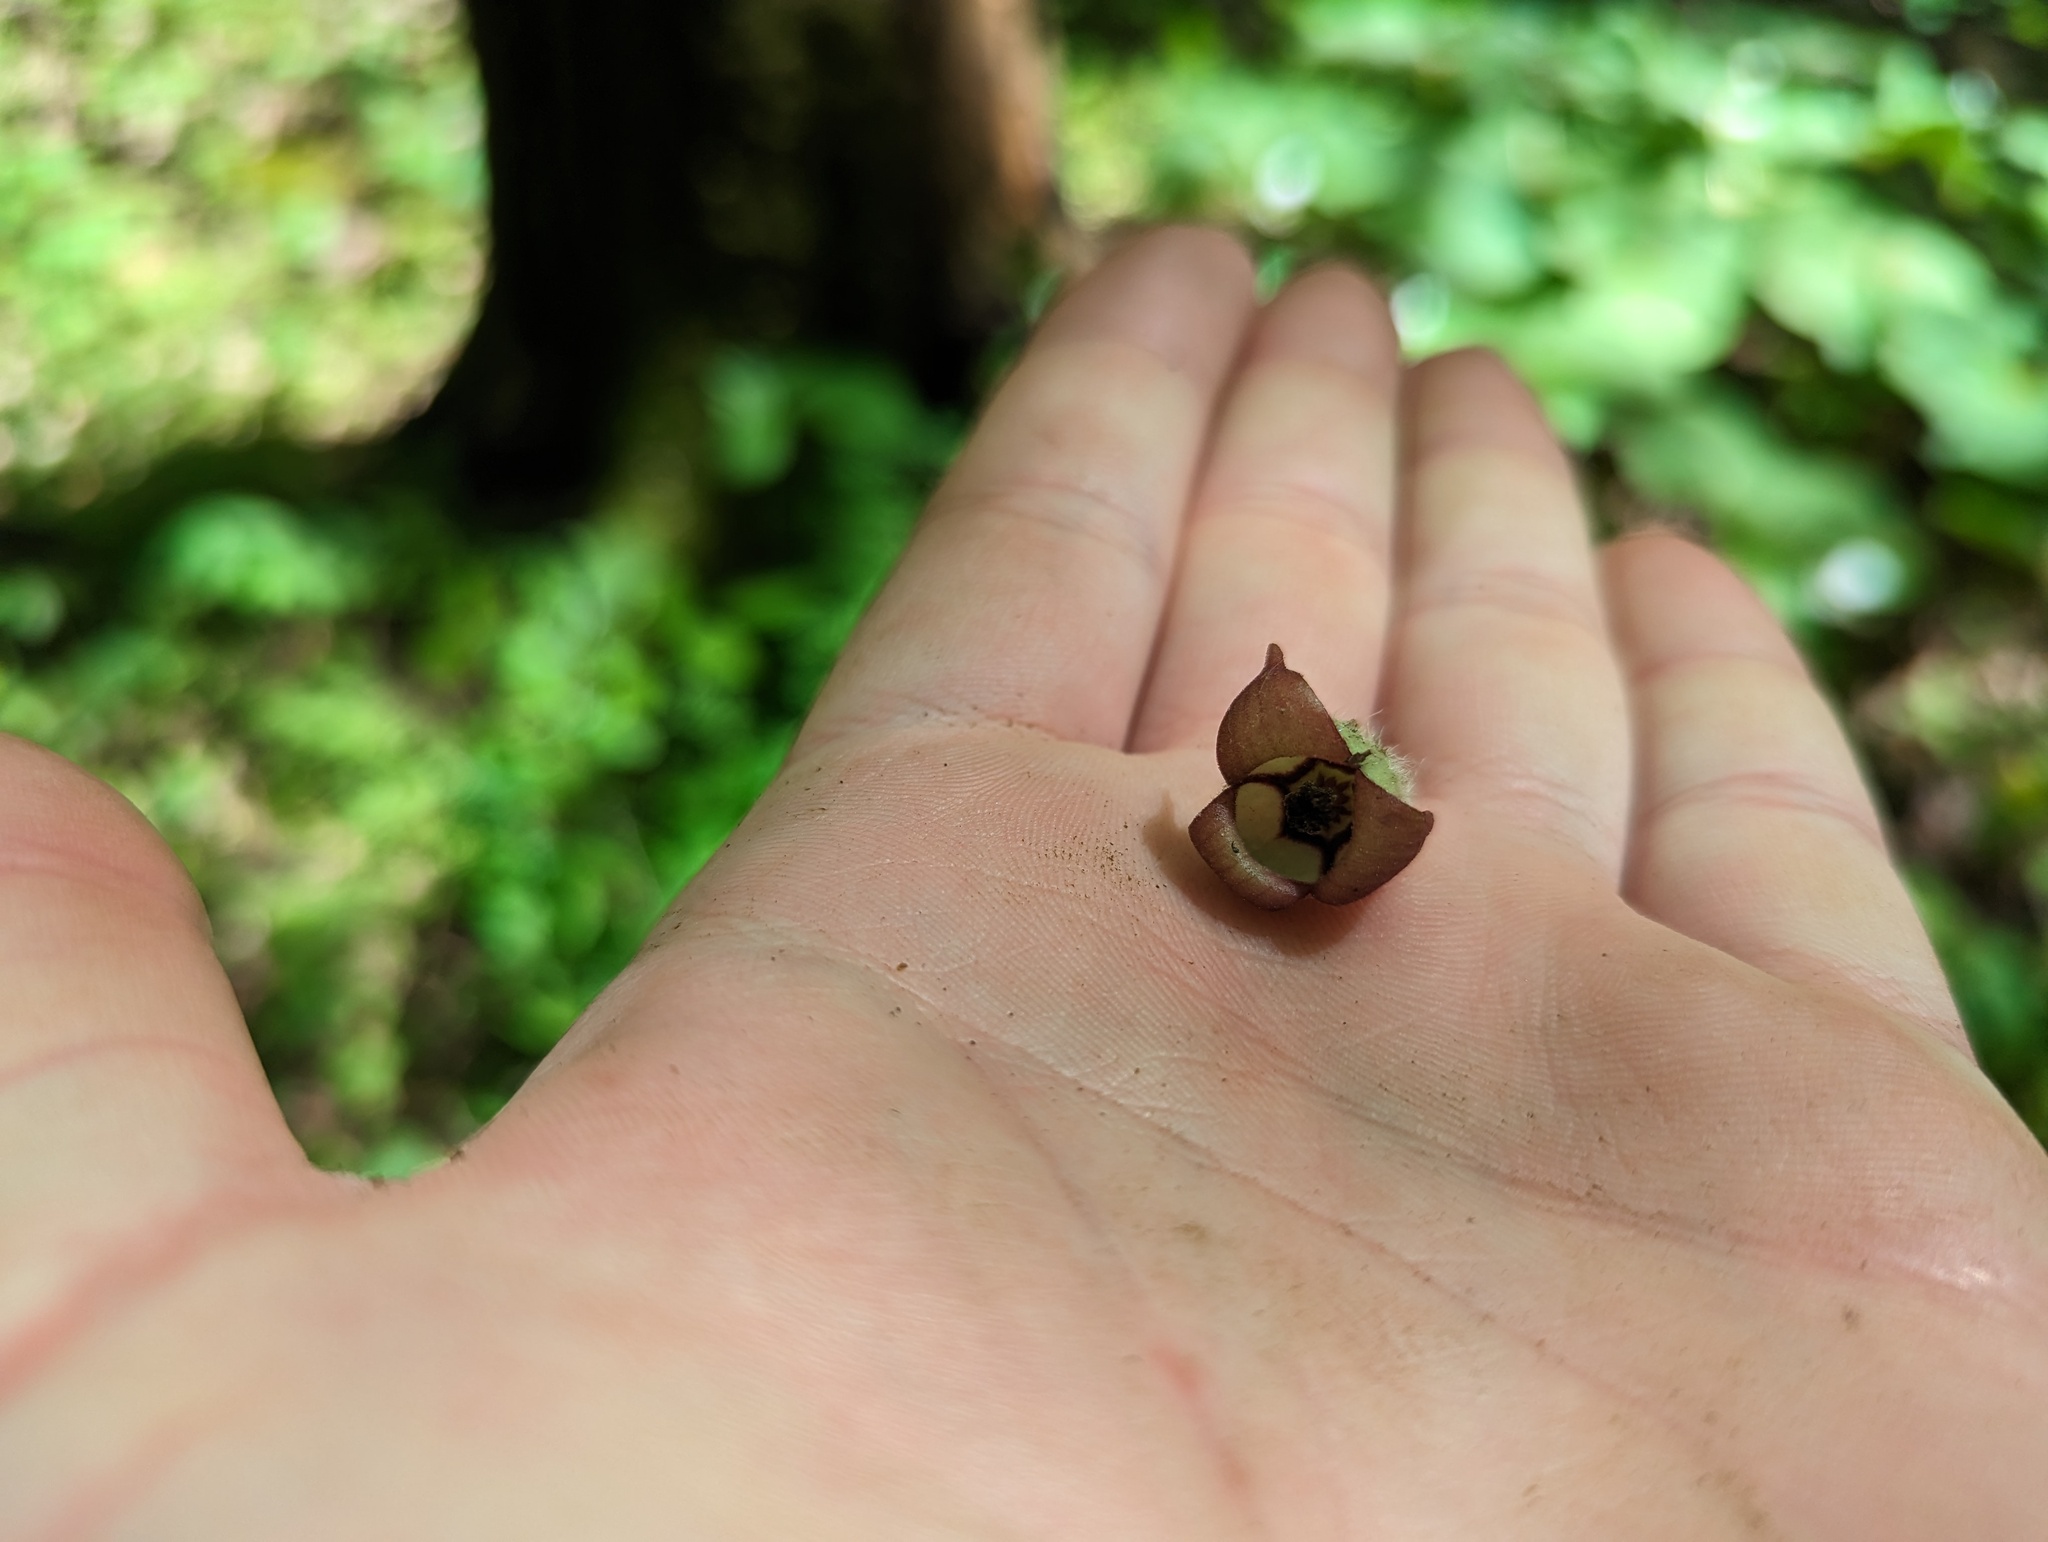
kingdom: Plantae
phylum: Tracheophyta
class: Magnoliopsida
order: Piperales
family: Aristolochiaceae
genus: Asarum
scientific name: Asarum canadense
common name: Wild ginger
